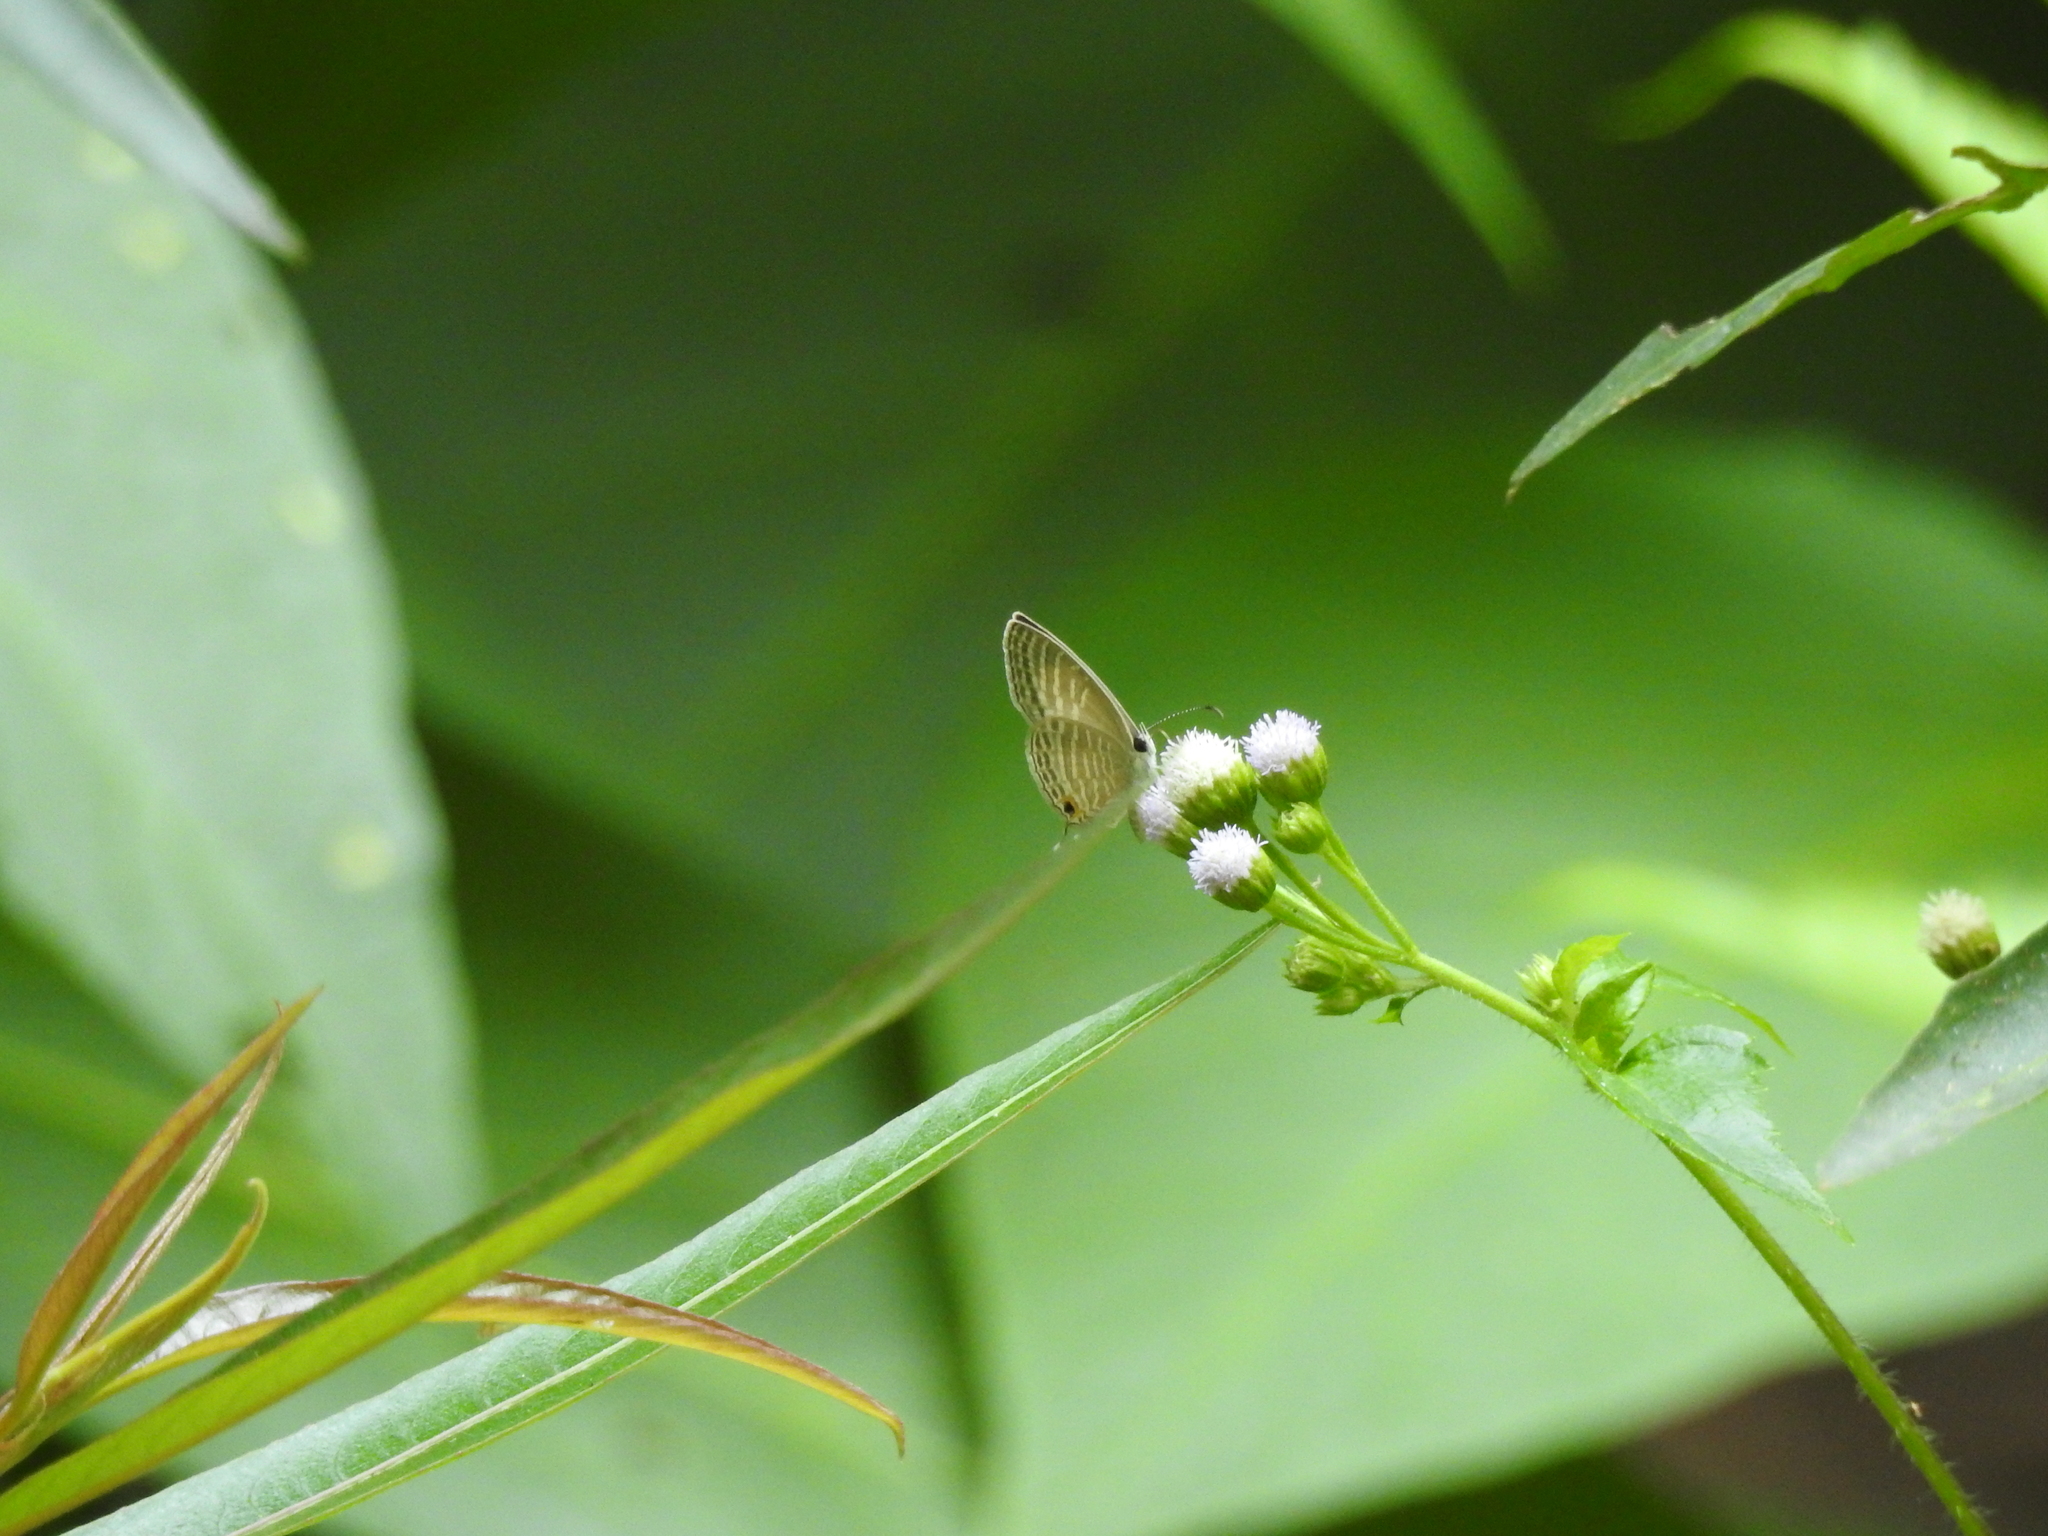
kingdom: Animalia
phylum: Arthropoda
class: Insecta
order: Lepidoptera
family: Lycaenidae
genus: Jamides
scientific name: Jamides celeno
